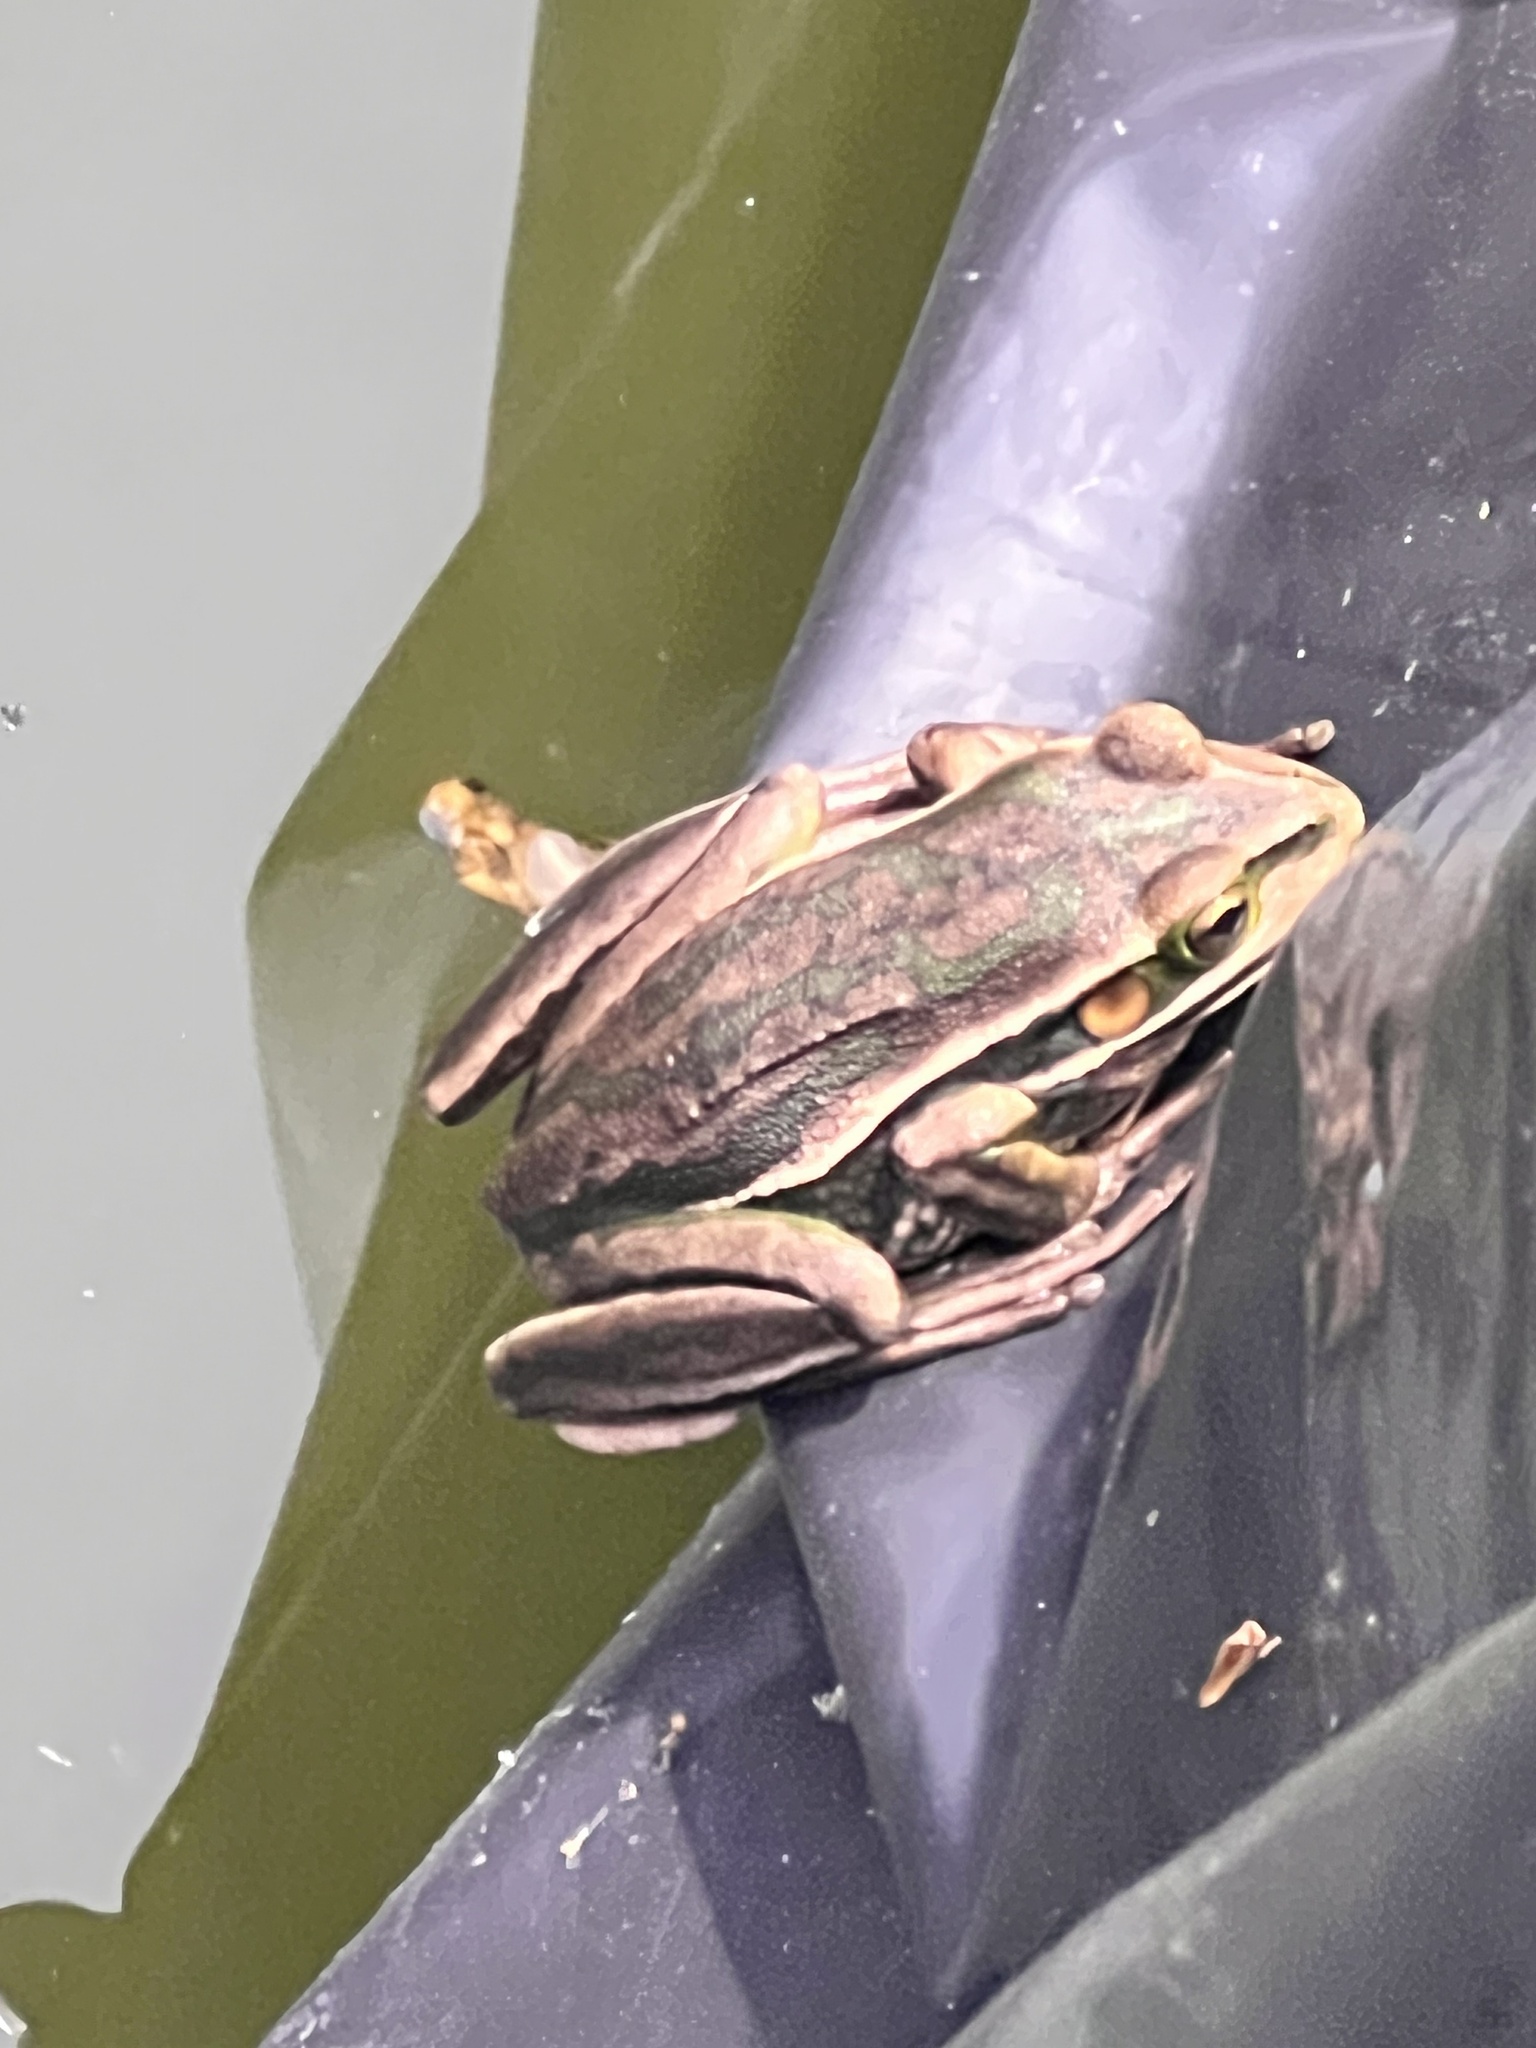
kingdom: Animalia
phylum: Chordata
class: Amphibia
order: Anura
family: Pelodryadidae
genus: Ranoidea
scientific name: Ranoidea aurea
